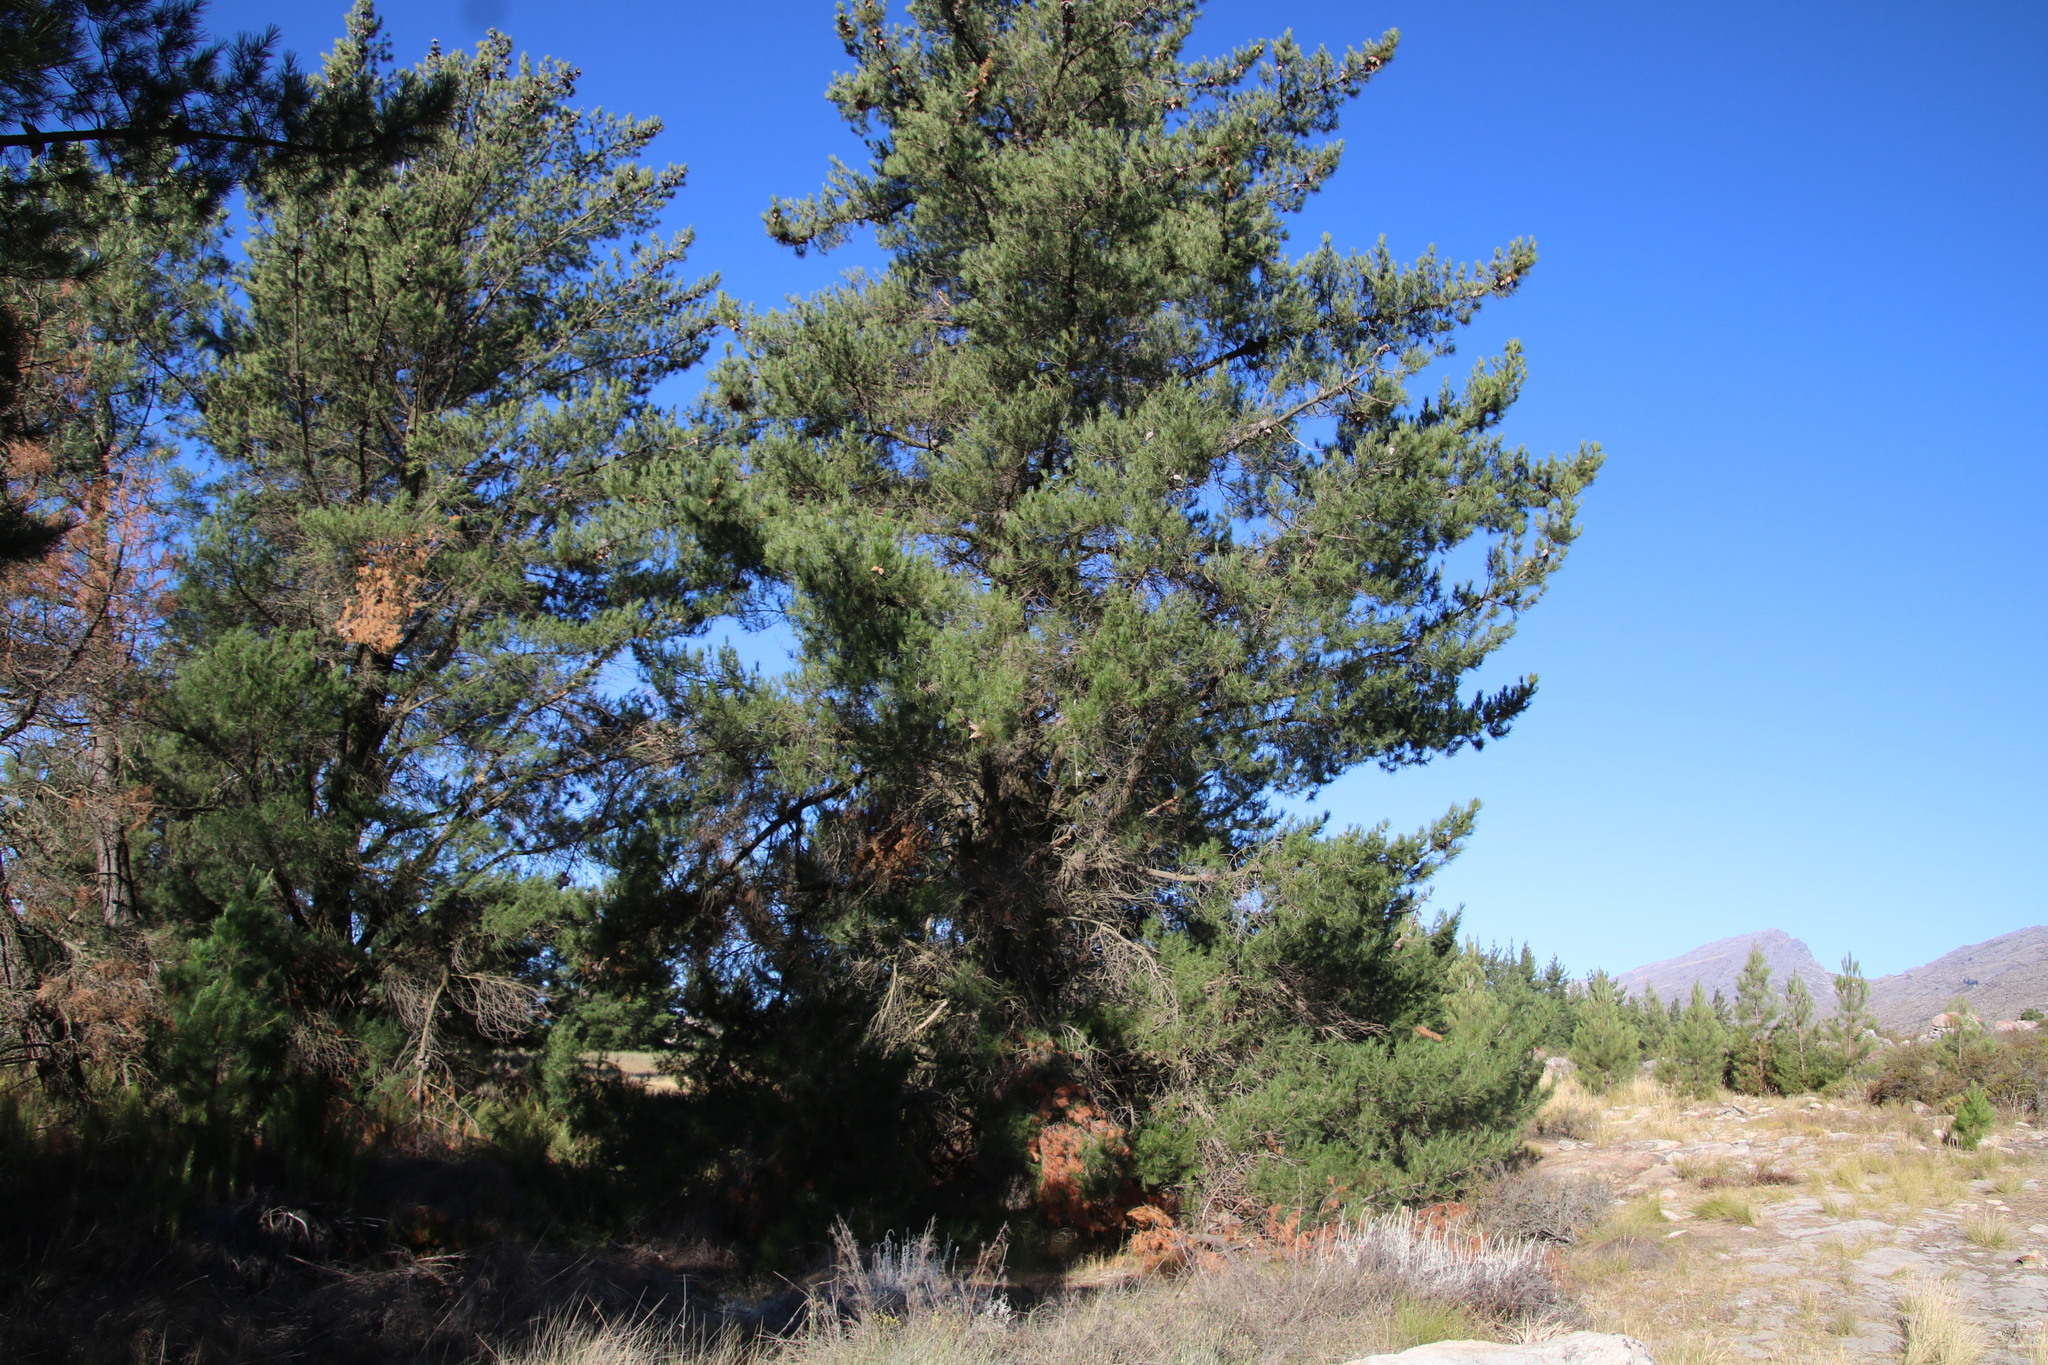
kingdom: Plantae
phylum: Tracheophyta
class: Pinopsida
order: Pinales
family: Pinaceae
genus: Pinus
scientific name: Pinus radiata
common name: Monterey pine
